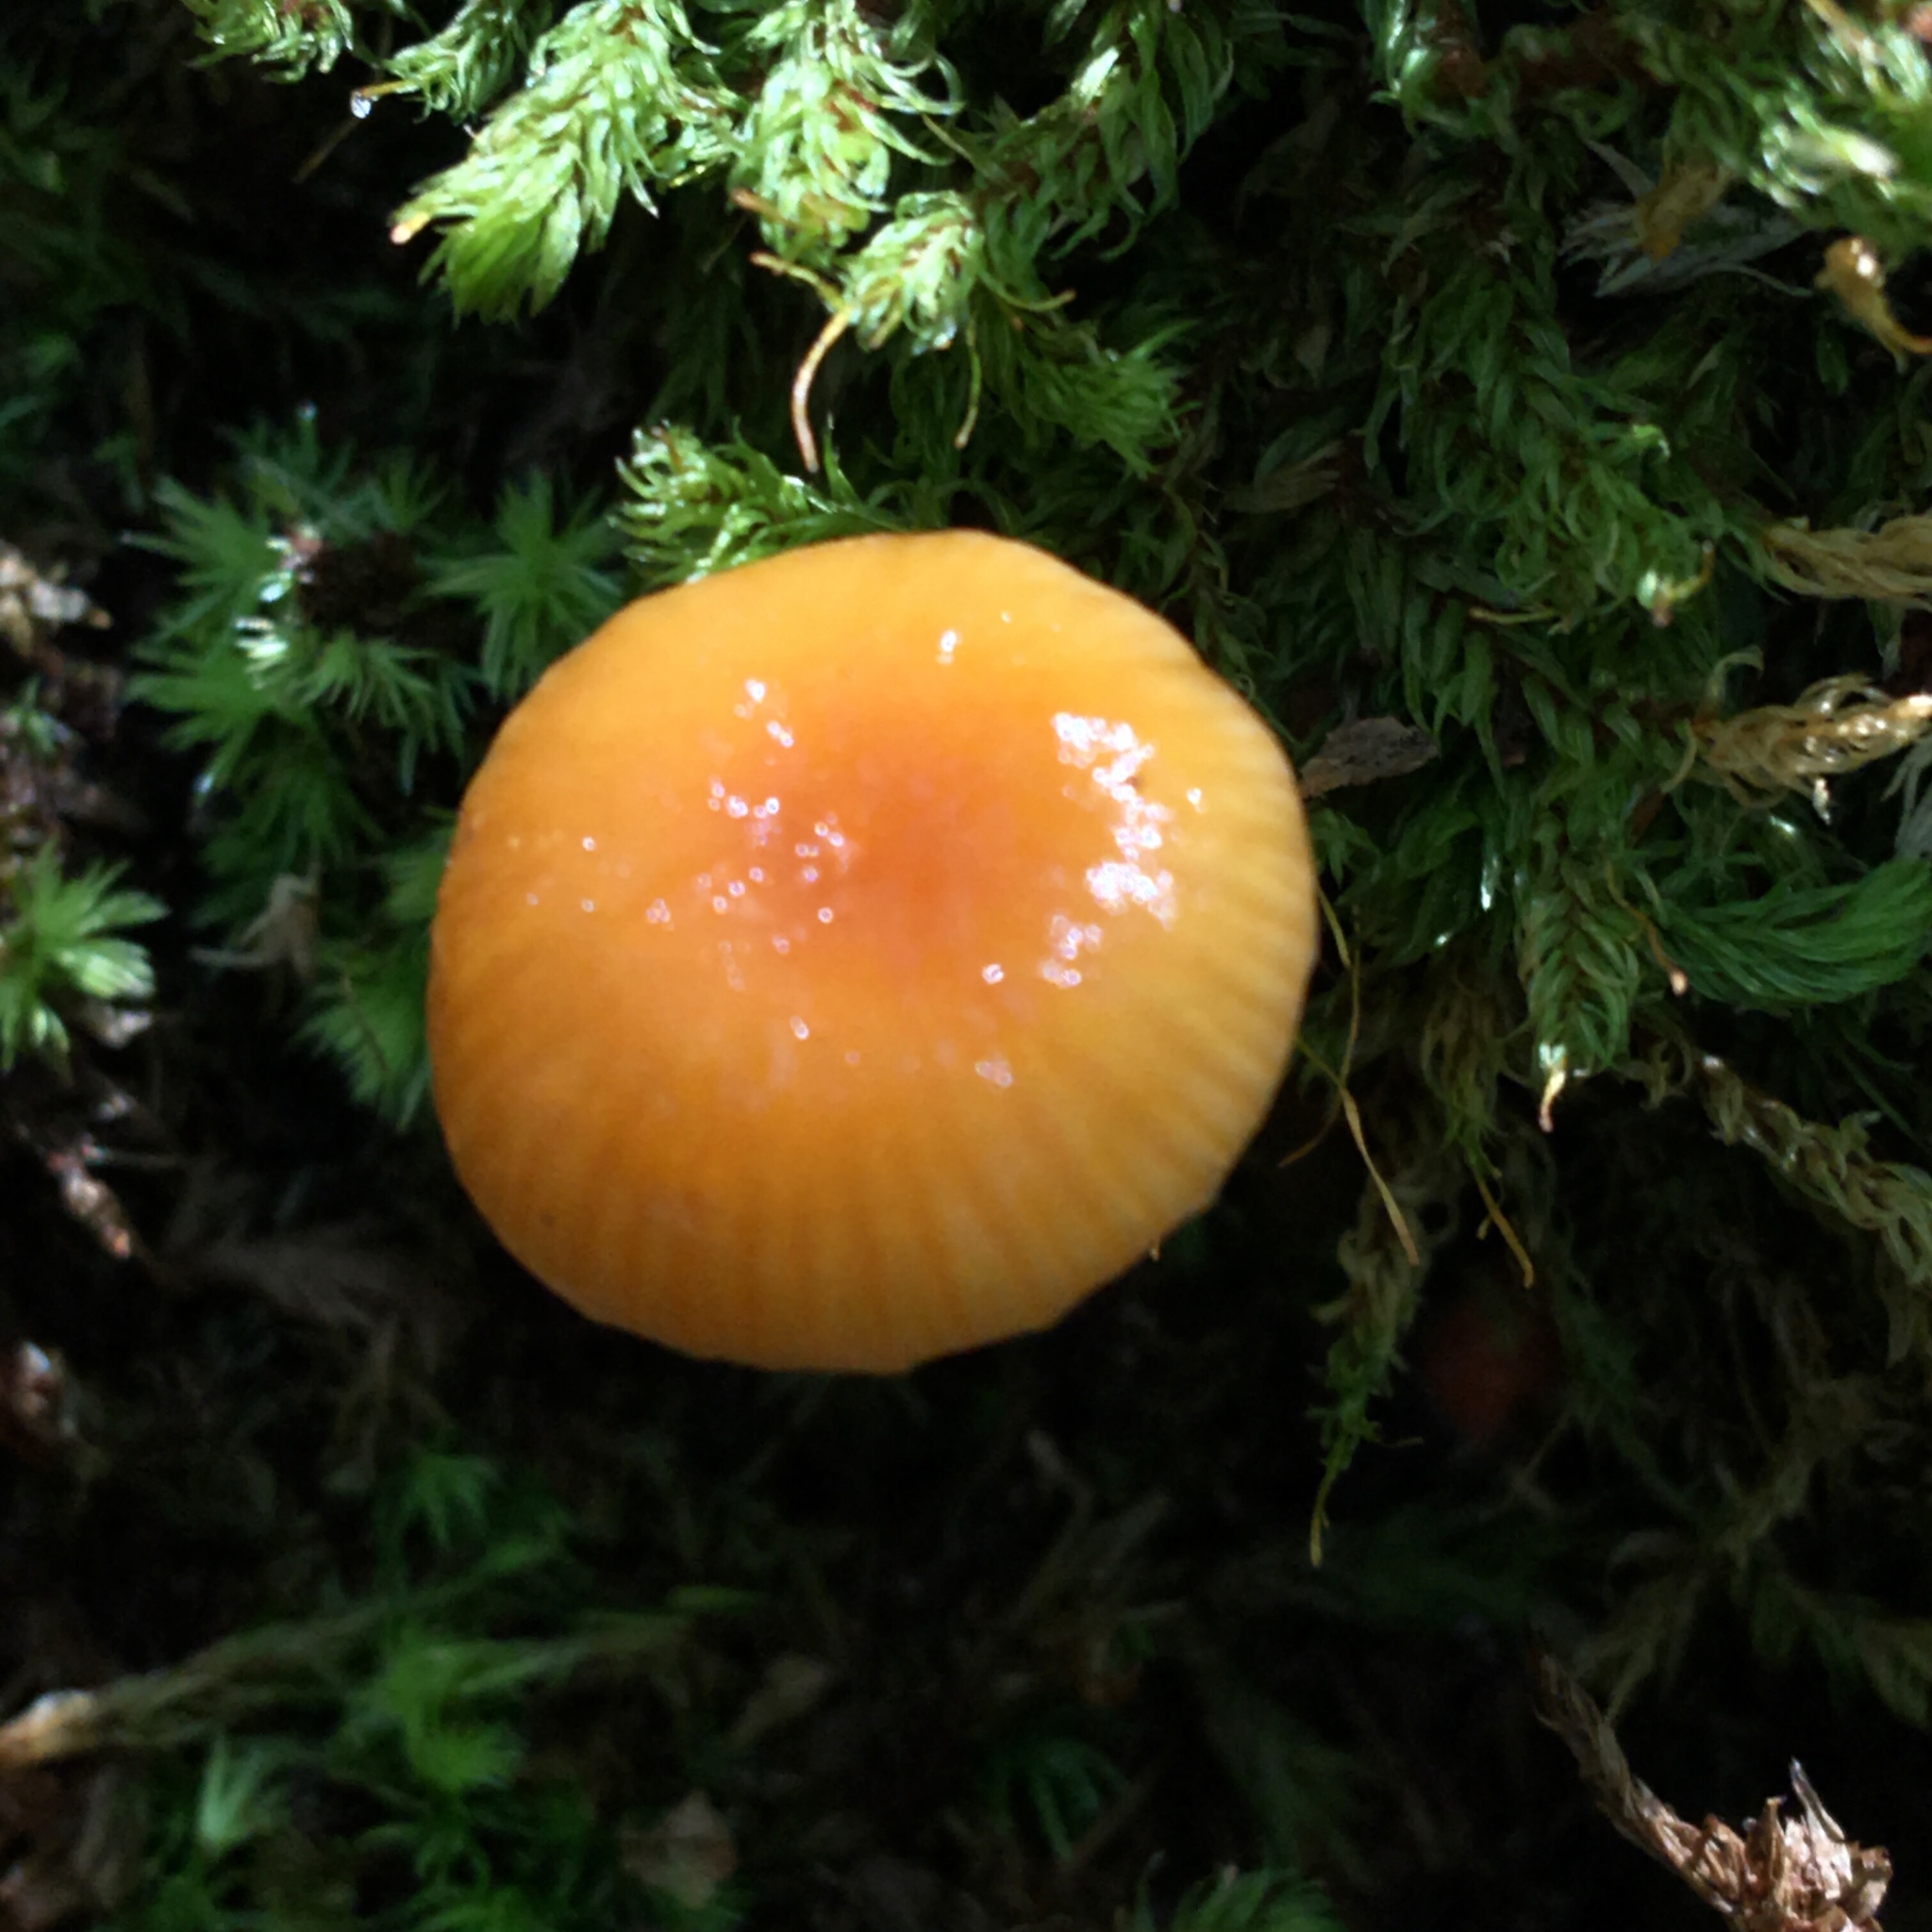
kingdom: Fungi
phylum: Basidiomycota
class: Agaricomycetes
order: Agaricales
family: Hygrophoraceae
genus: Gliophorus
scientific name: Gliophorus laetus
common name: Heath waxcap
